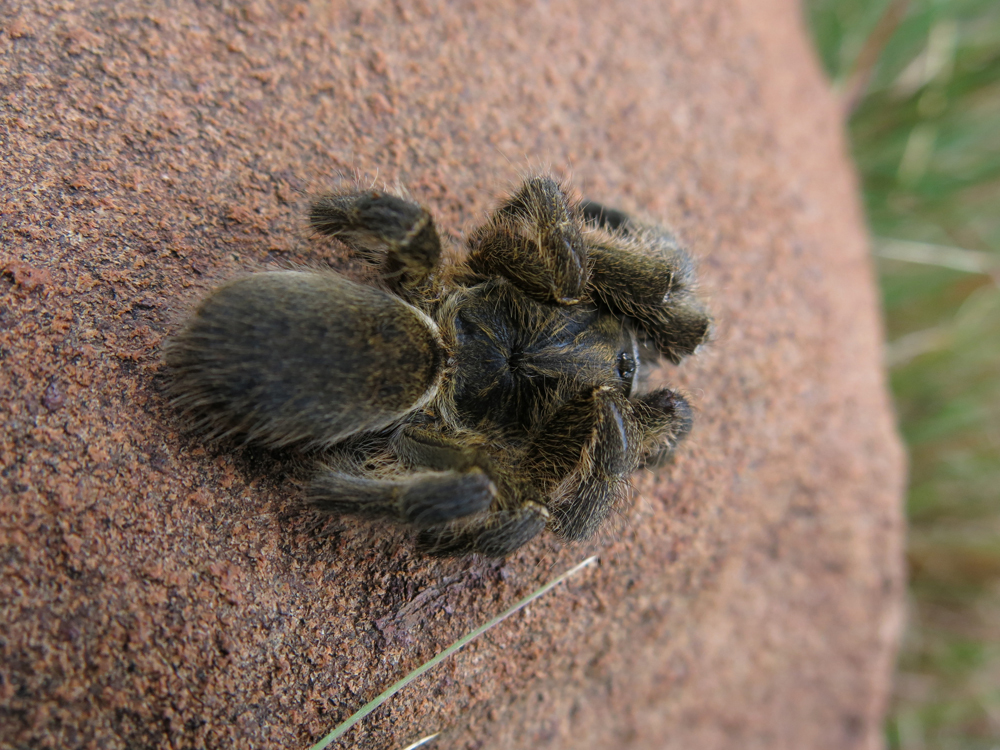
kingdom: Animalia
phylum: Arthropoda
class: Arachnida
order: Araneae
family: Theraphosidae
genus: Harpactira
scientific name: Harpactira hamiltoni
